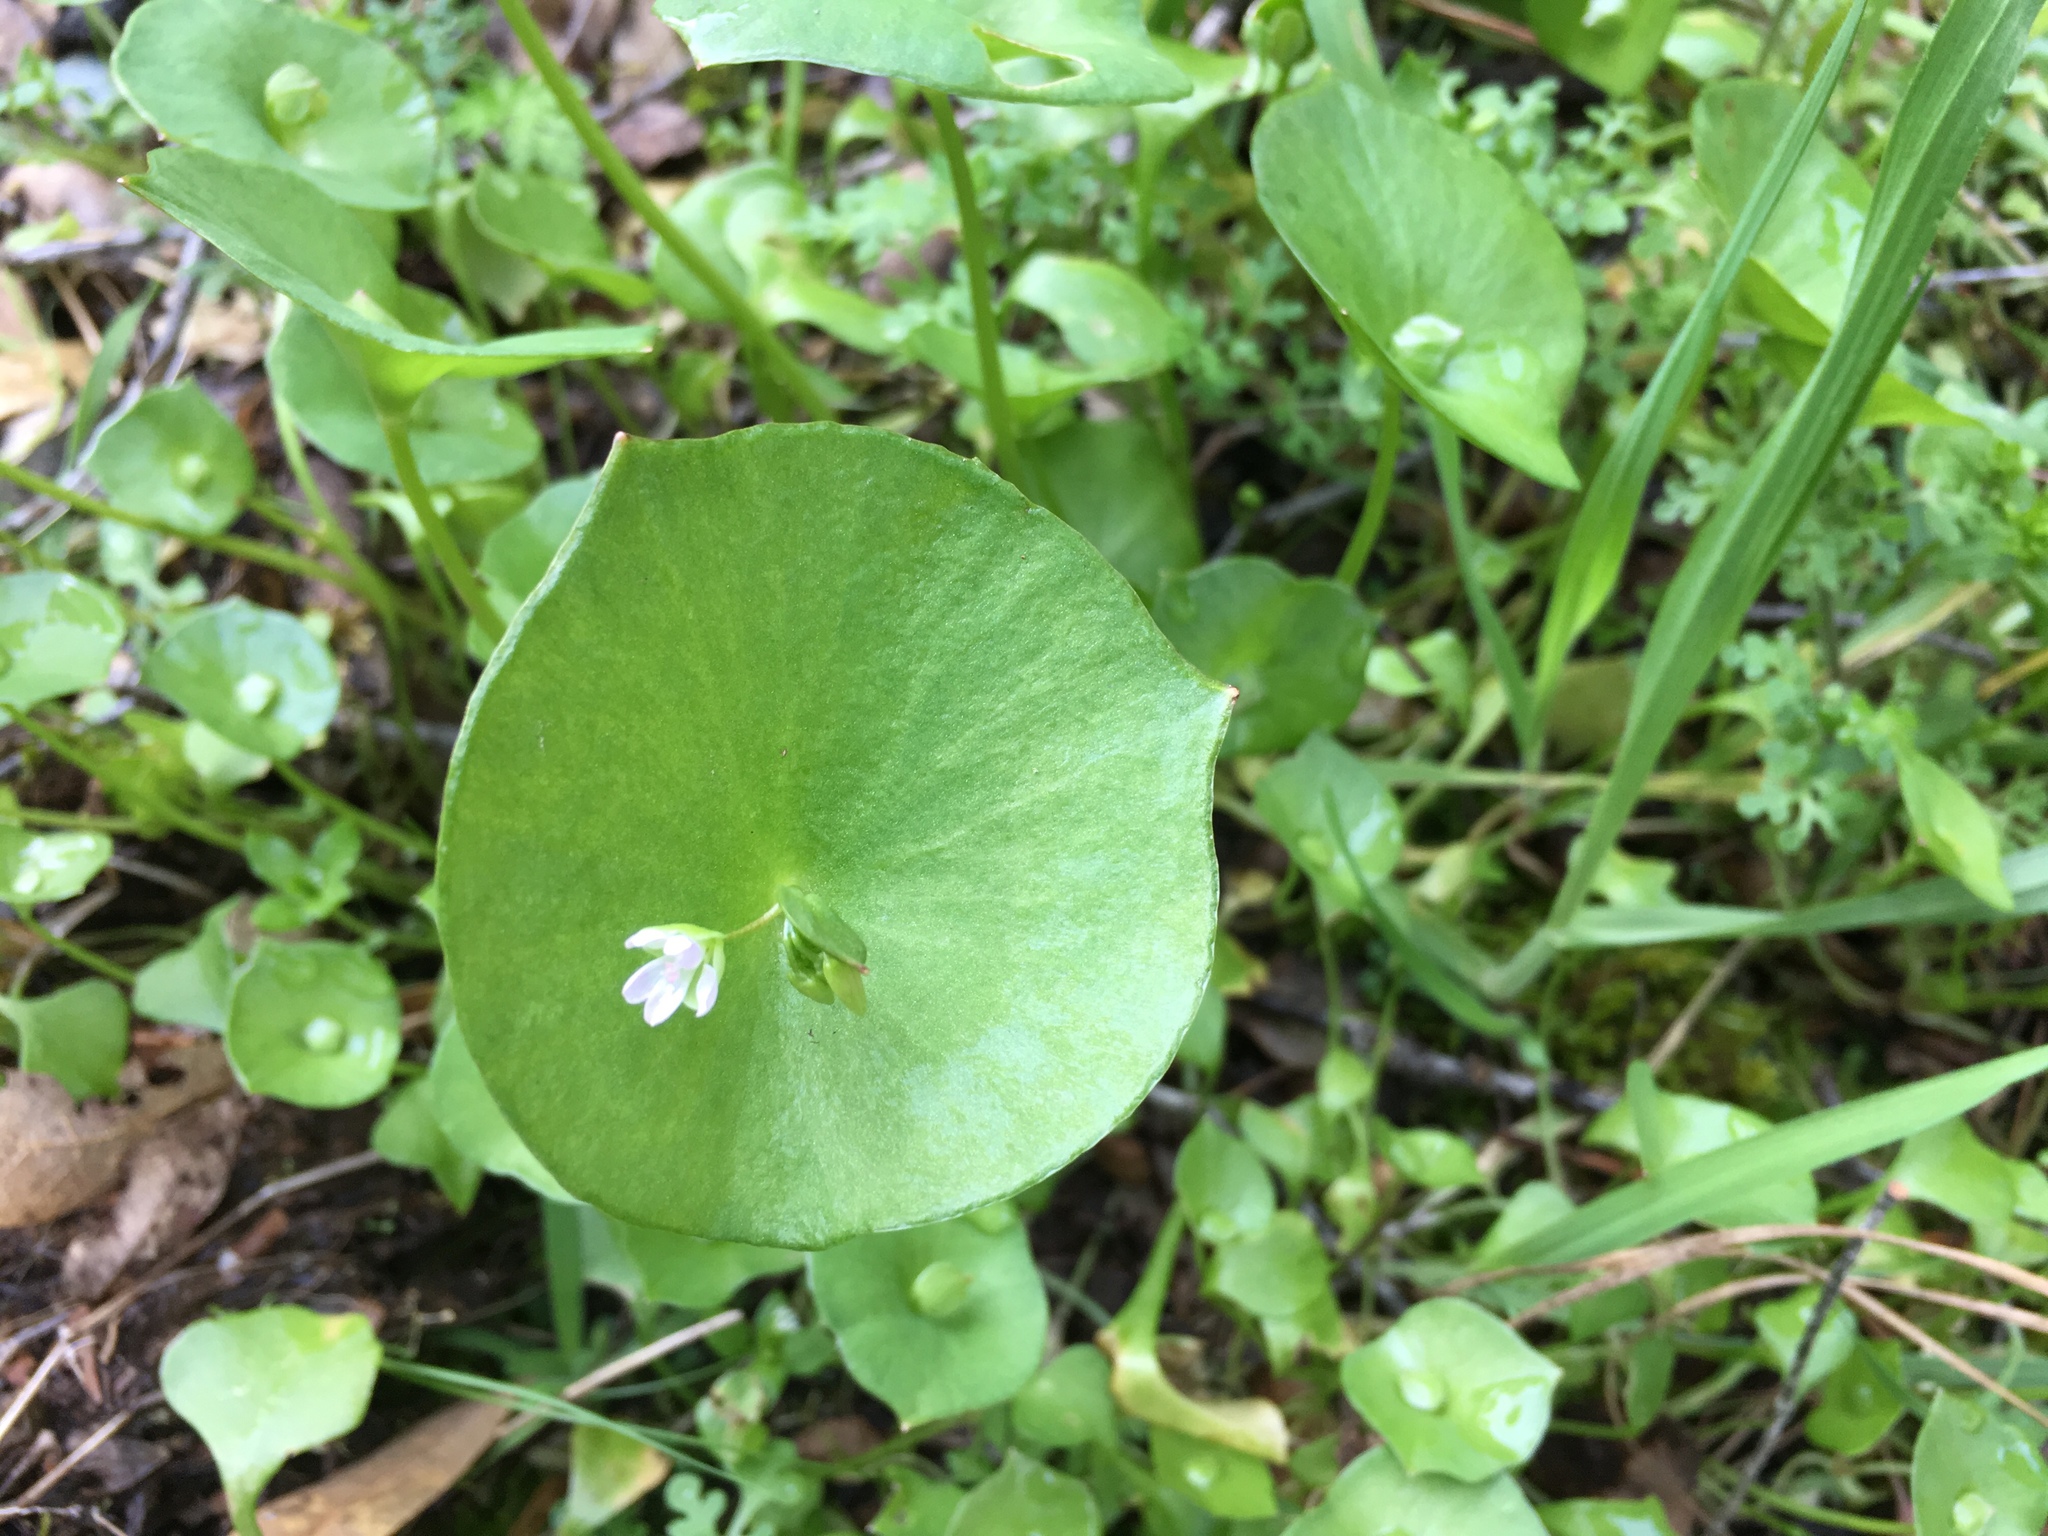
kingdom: Plantae
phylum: Tracheophyta
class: Magnoliopsida
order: Caryophyllales
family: Montiaceae
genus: Claytonia
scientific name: Claytonia perfoliata
